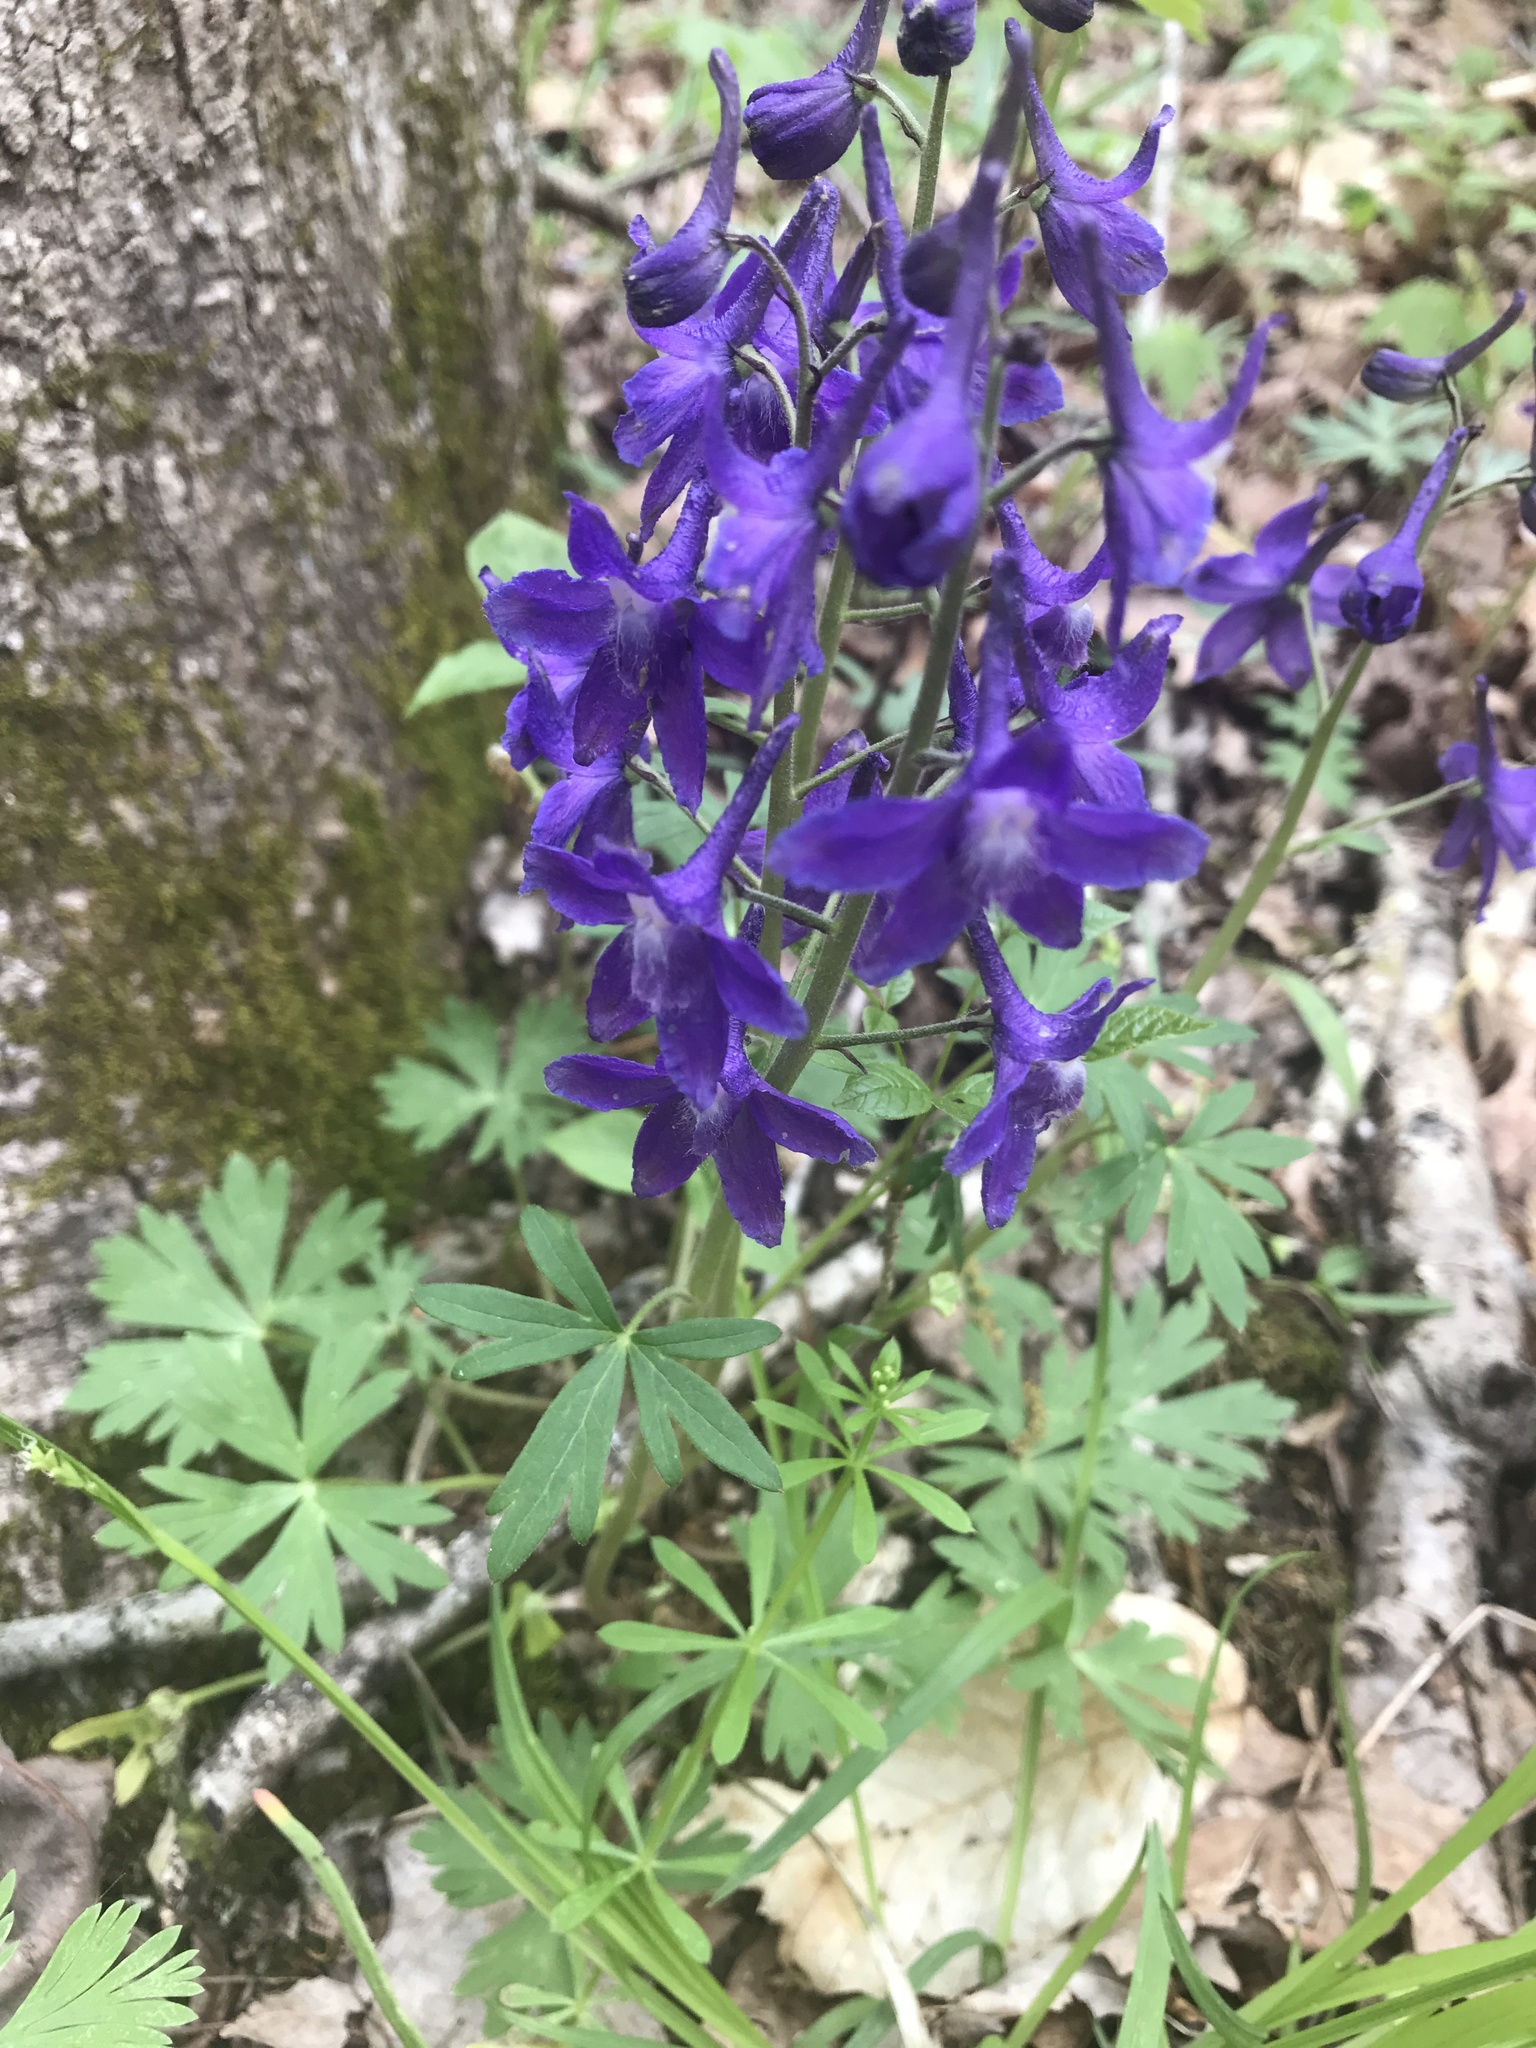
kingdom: Plantae
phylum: Tracheophyta
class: Magnoliopsida
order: Ranunculales
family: Ranunculaceae
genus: Delphinium
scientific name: Delphinium tricorne
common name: Dwarf larkspur
